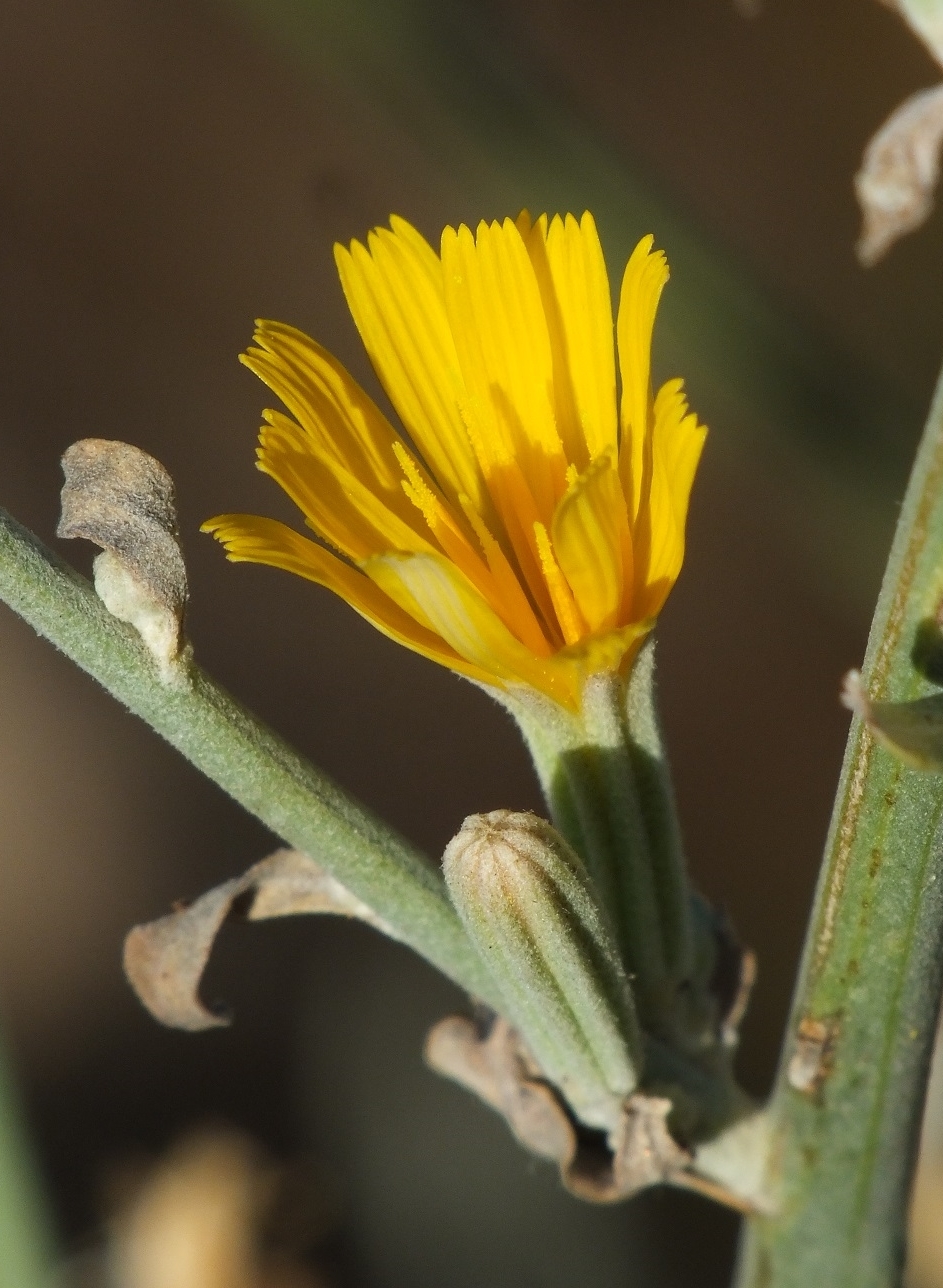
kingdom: Plantae
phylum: Tracheophyta
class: Magnoliopsida
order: Asterales
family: Asteraceae
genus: Chondrilla
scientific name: Chondrilla juncea
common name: Skeleton weed
